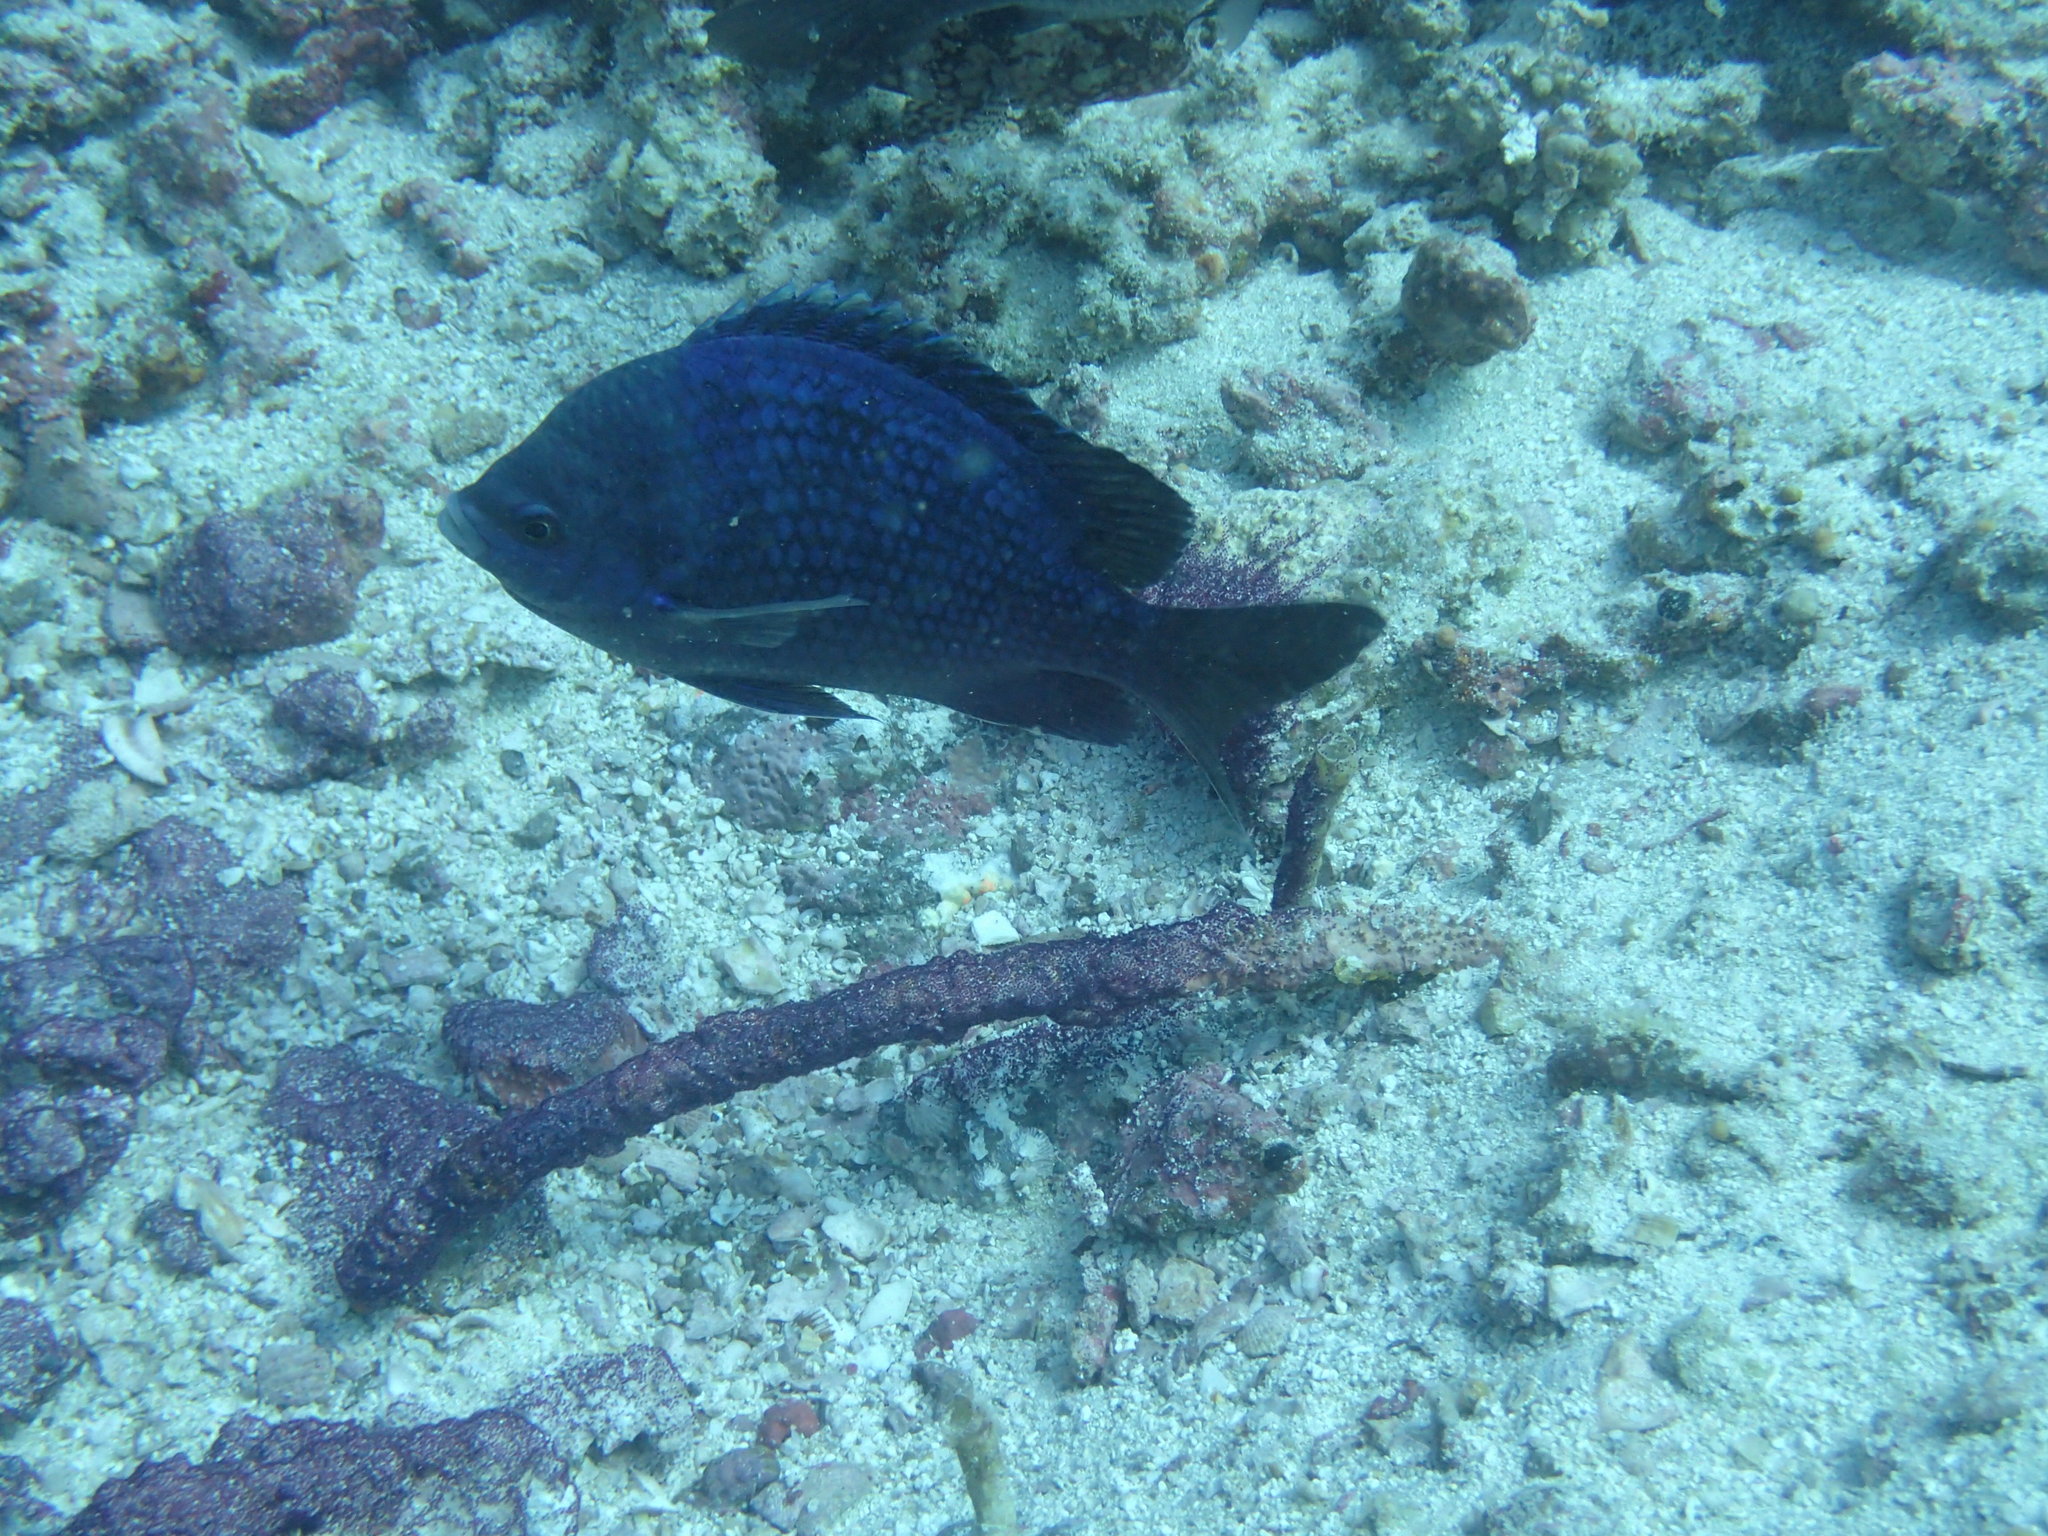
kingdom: Animalia
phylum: Chordata
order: Perciformes
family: Pomacentridae
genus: Abudefduf
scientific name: Abudefduf troschelii
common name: Panamic sergeant major
